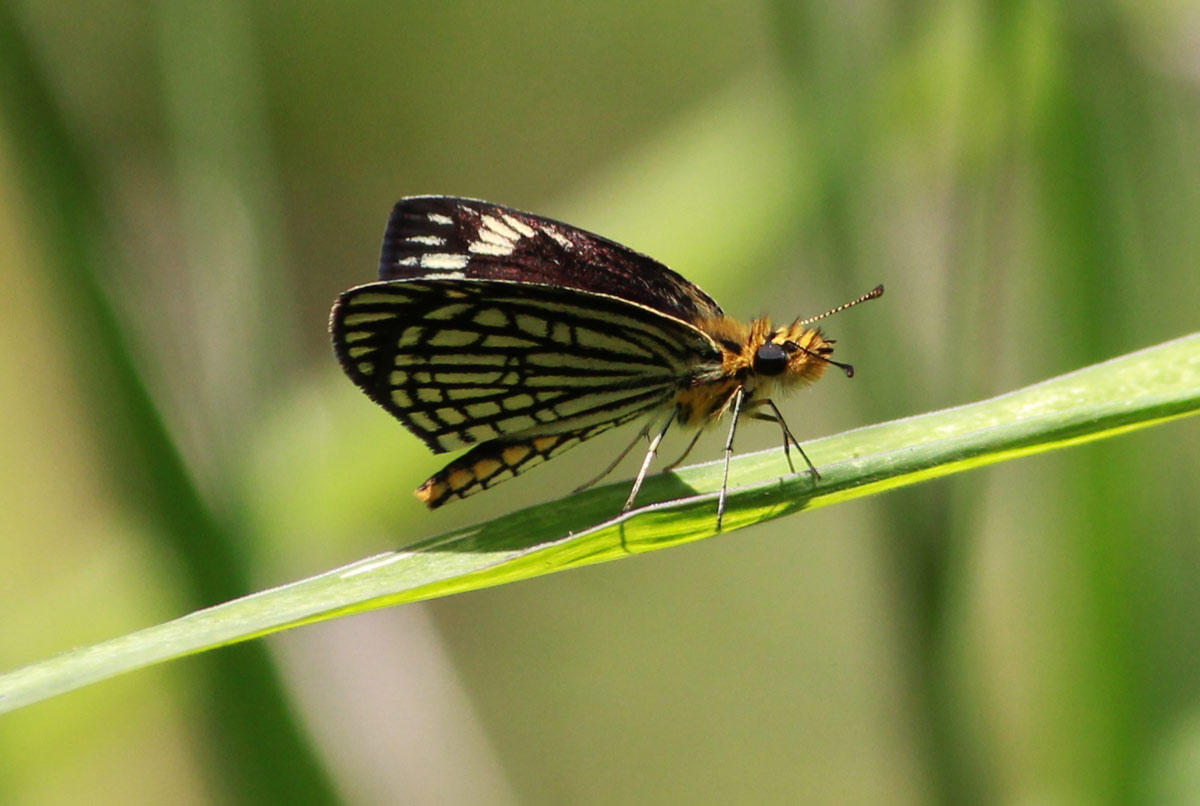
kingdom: Animalia
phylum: Arthropoda
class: Insecta
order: Lepidoptera
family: Hesperiidae
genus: Willema
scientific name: Willema willemi
